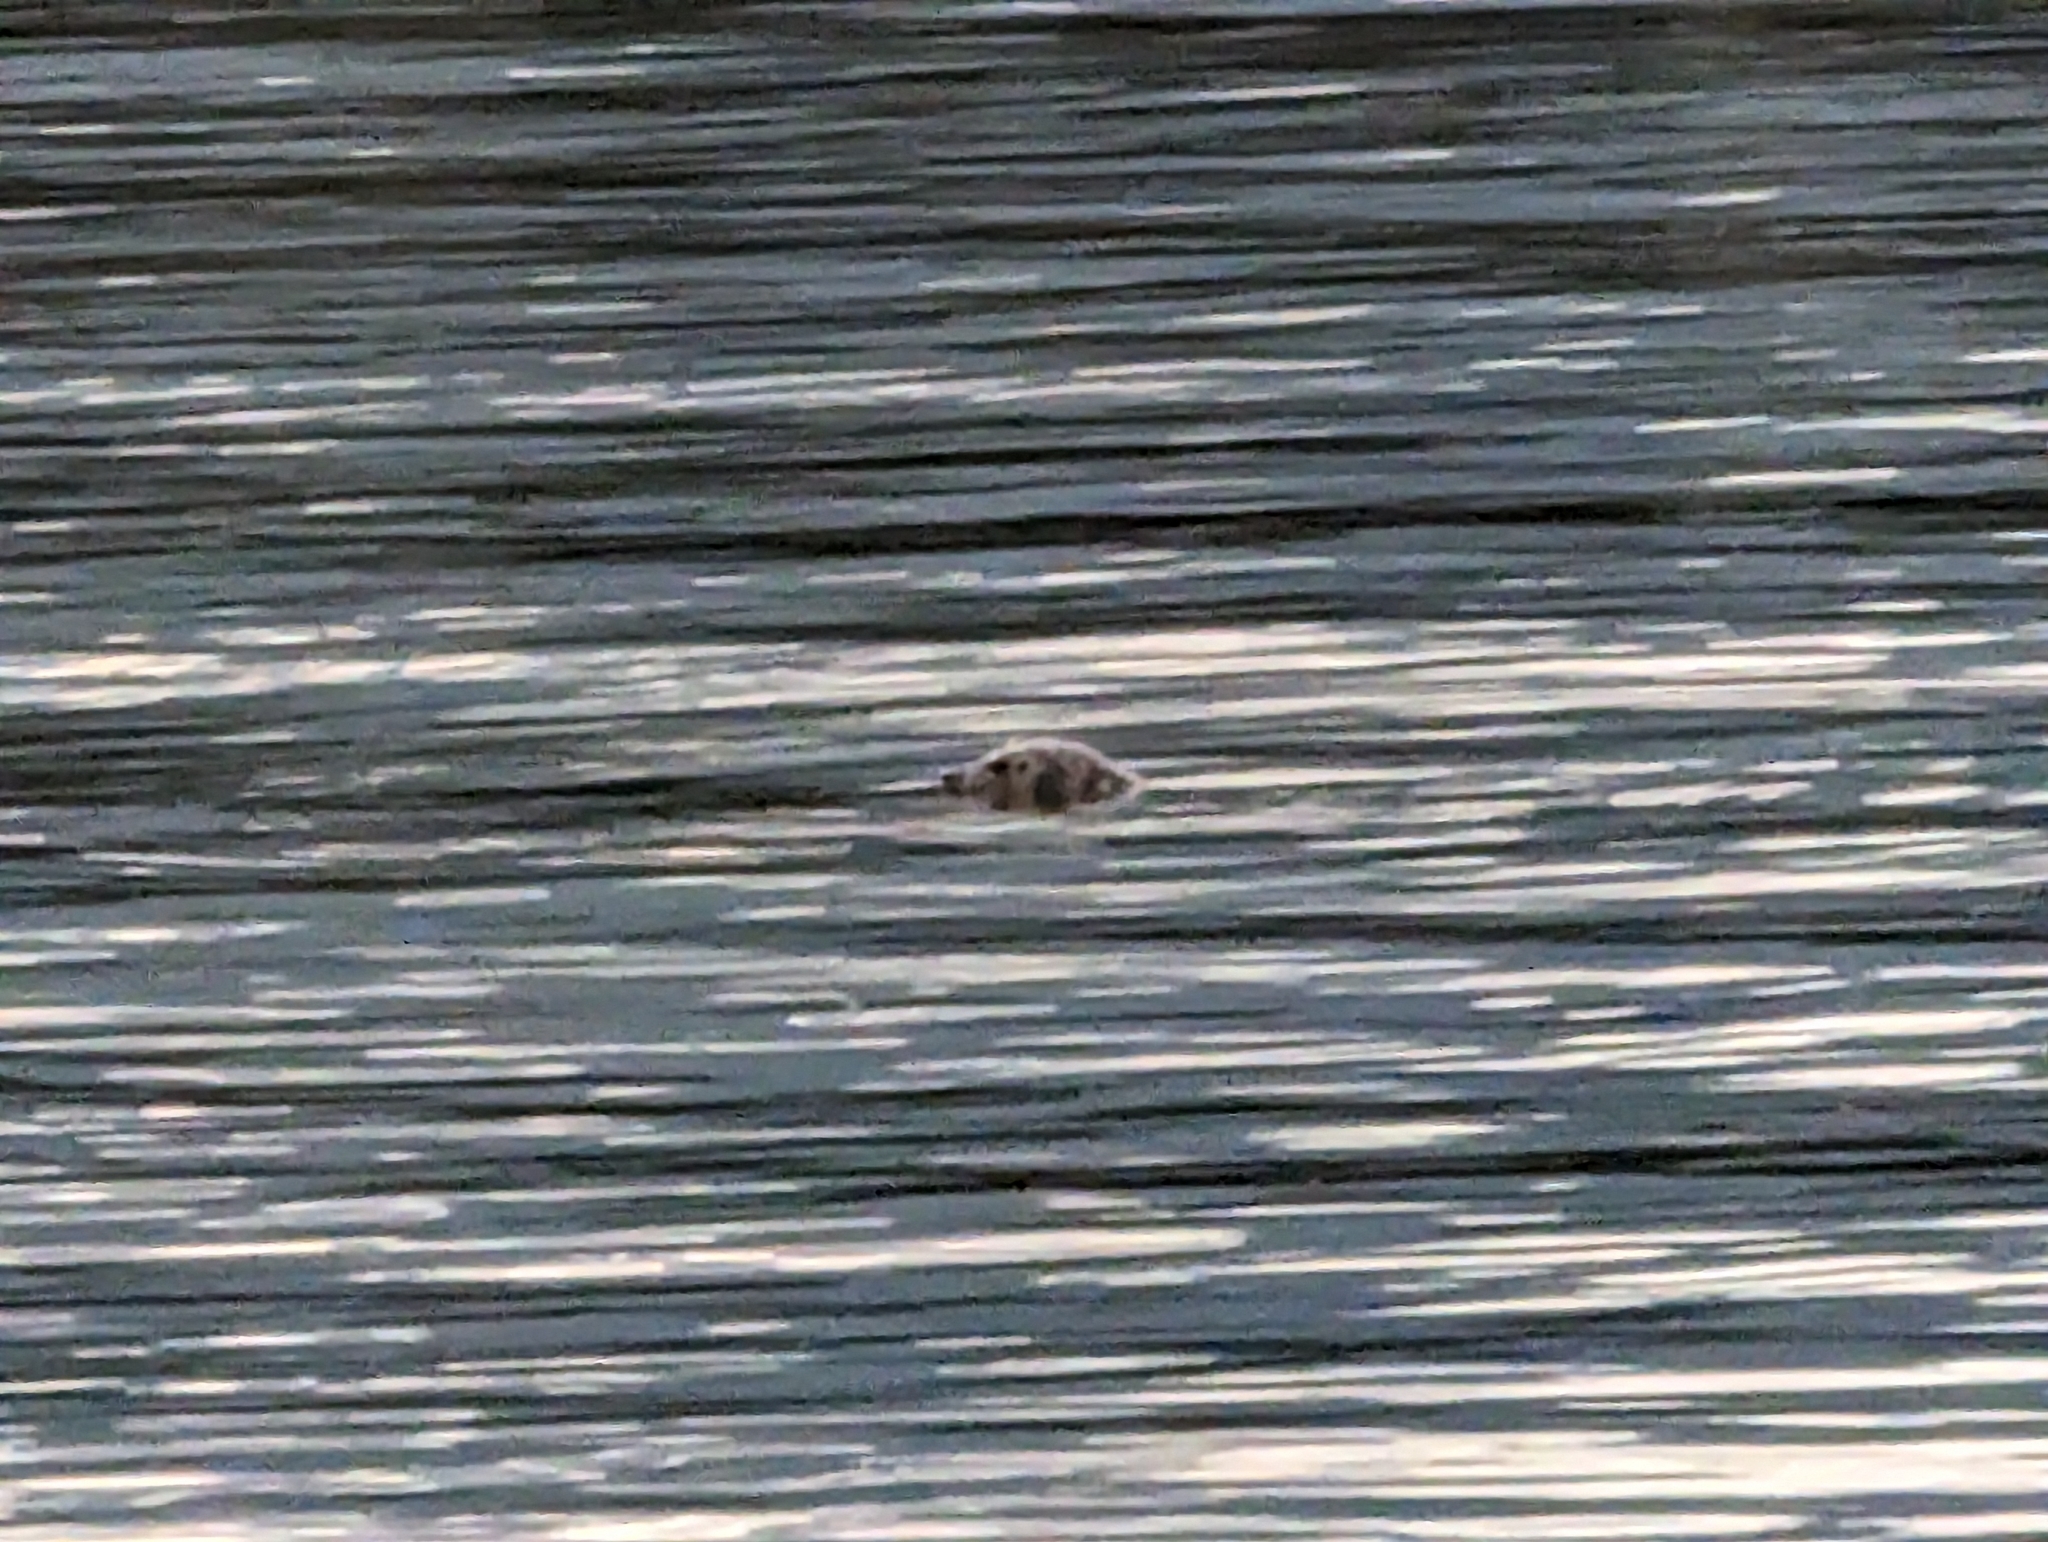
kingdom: Animalia
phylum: Chordata
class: Mammalia
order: Carnivora
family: Phocidae
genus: Phoca
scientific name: Phoca vitulina
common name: Harbor seal
